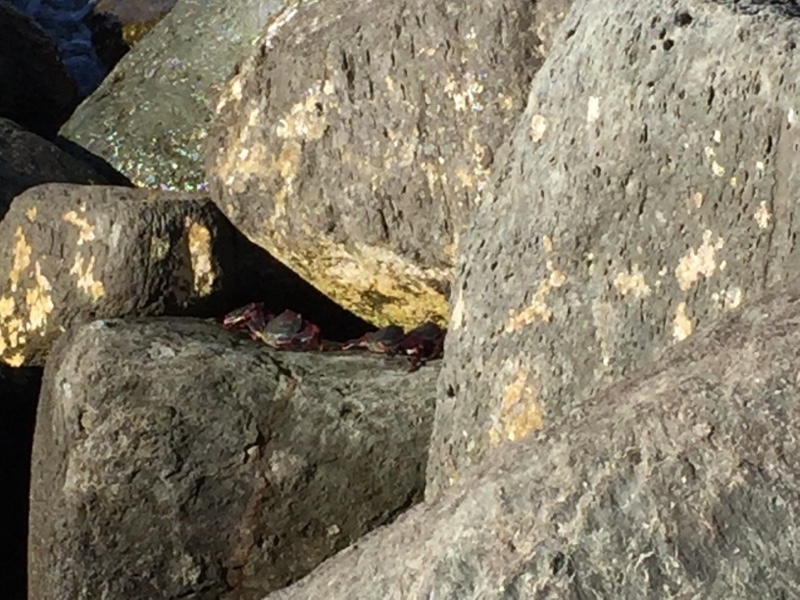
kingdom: Animalia
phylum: Arthropoda
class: Malacostraca
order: Decapoda
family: Grapsidae
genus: Grapsus
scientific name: Grapsus adscensionis
